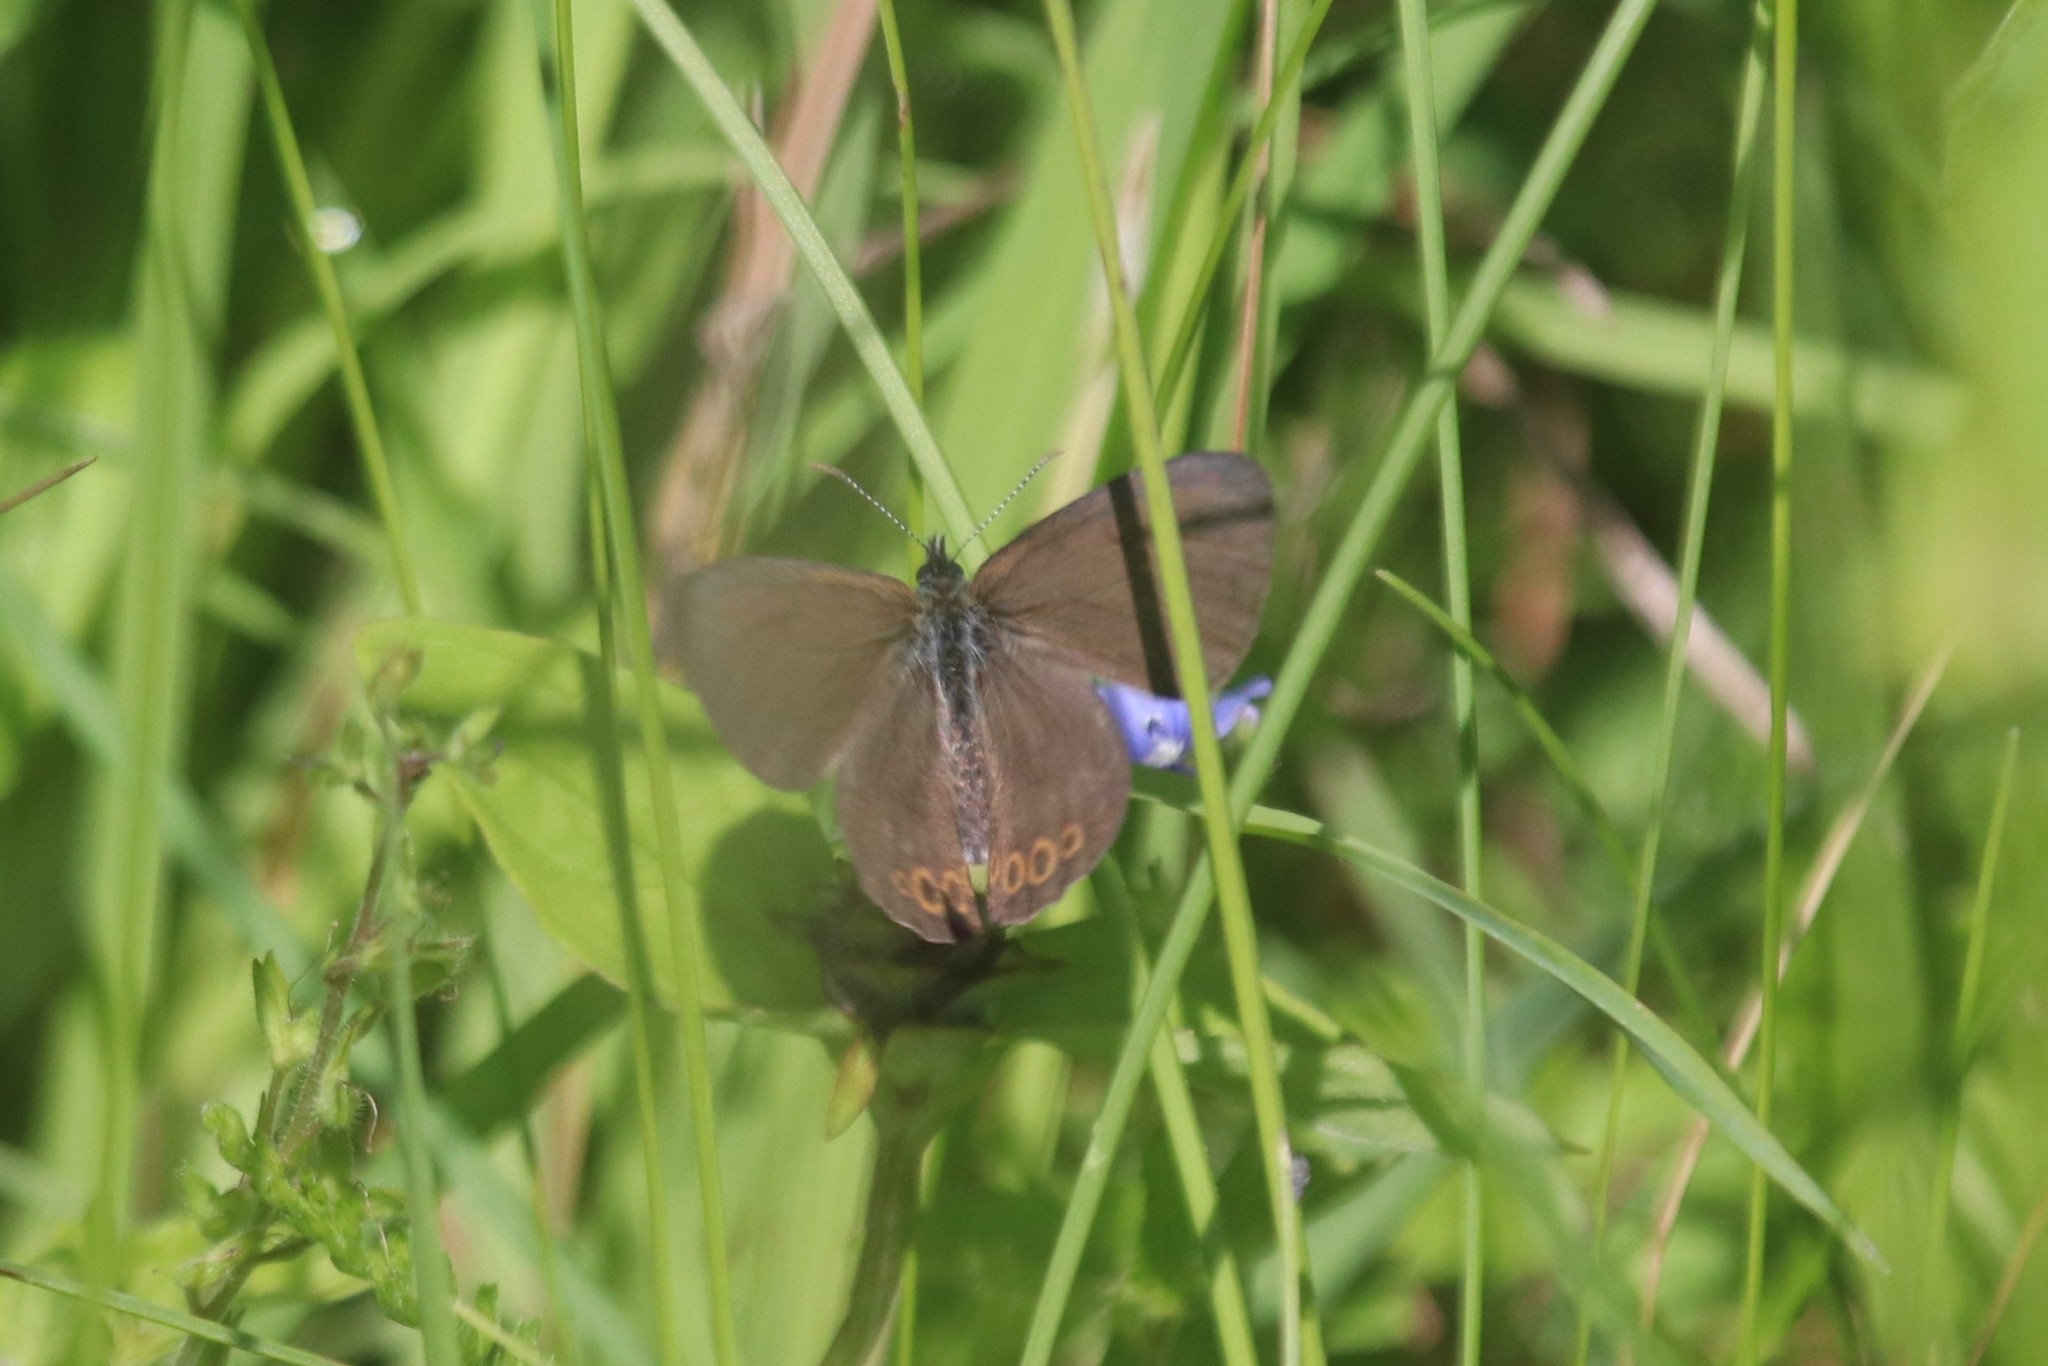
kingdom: Animalia
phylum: Arthropoda
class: Insecta
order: Lepidoptera
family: Nymphalidae
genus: Coenonympha
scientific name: Coenonympha hero
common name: Scarce heath
